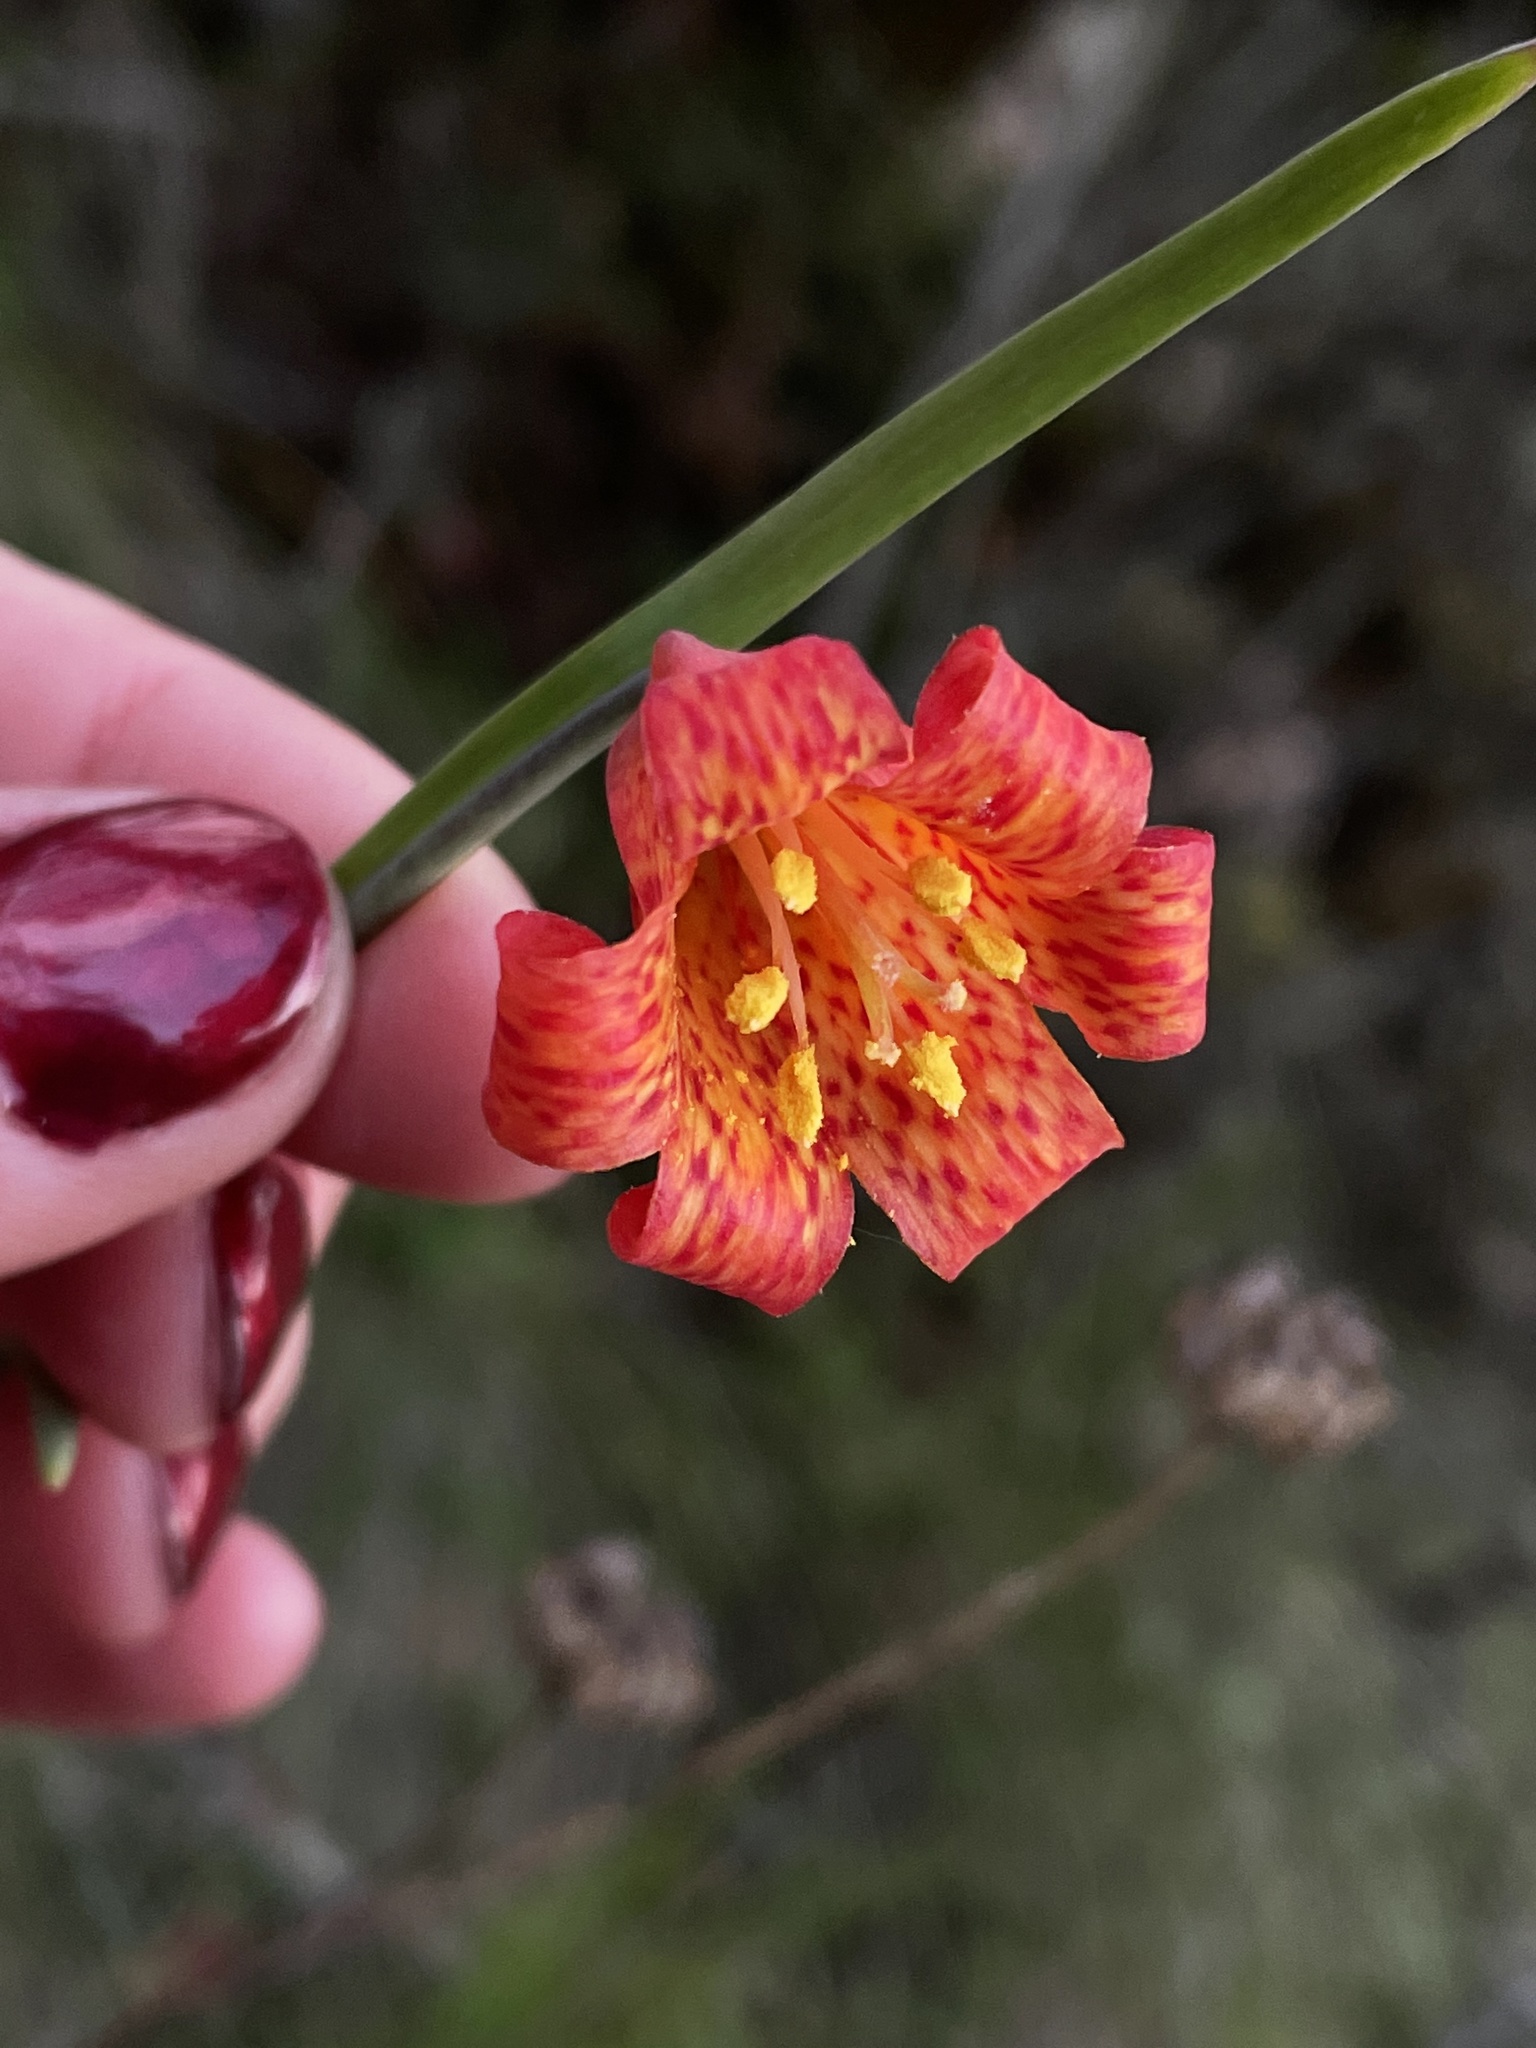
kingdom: Plantae
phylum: Tracheophyta
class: Liliopsida
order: Liliales
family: Liliaceae
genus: Fritillaria
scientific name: Fritillaria recurva
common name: Scarlet fritillary
